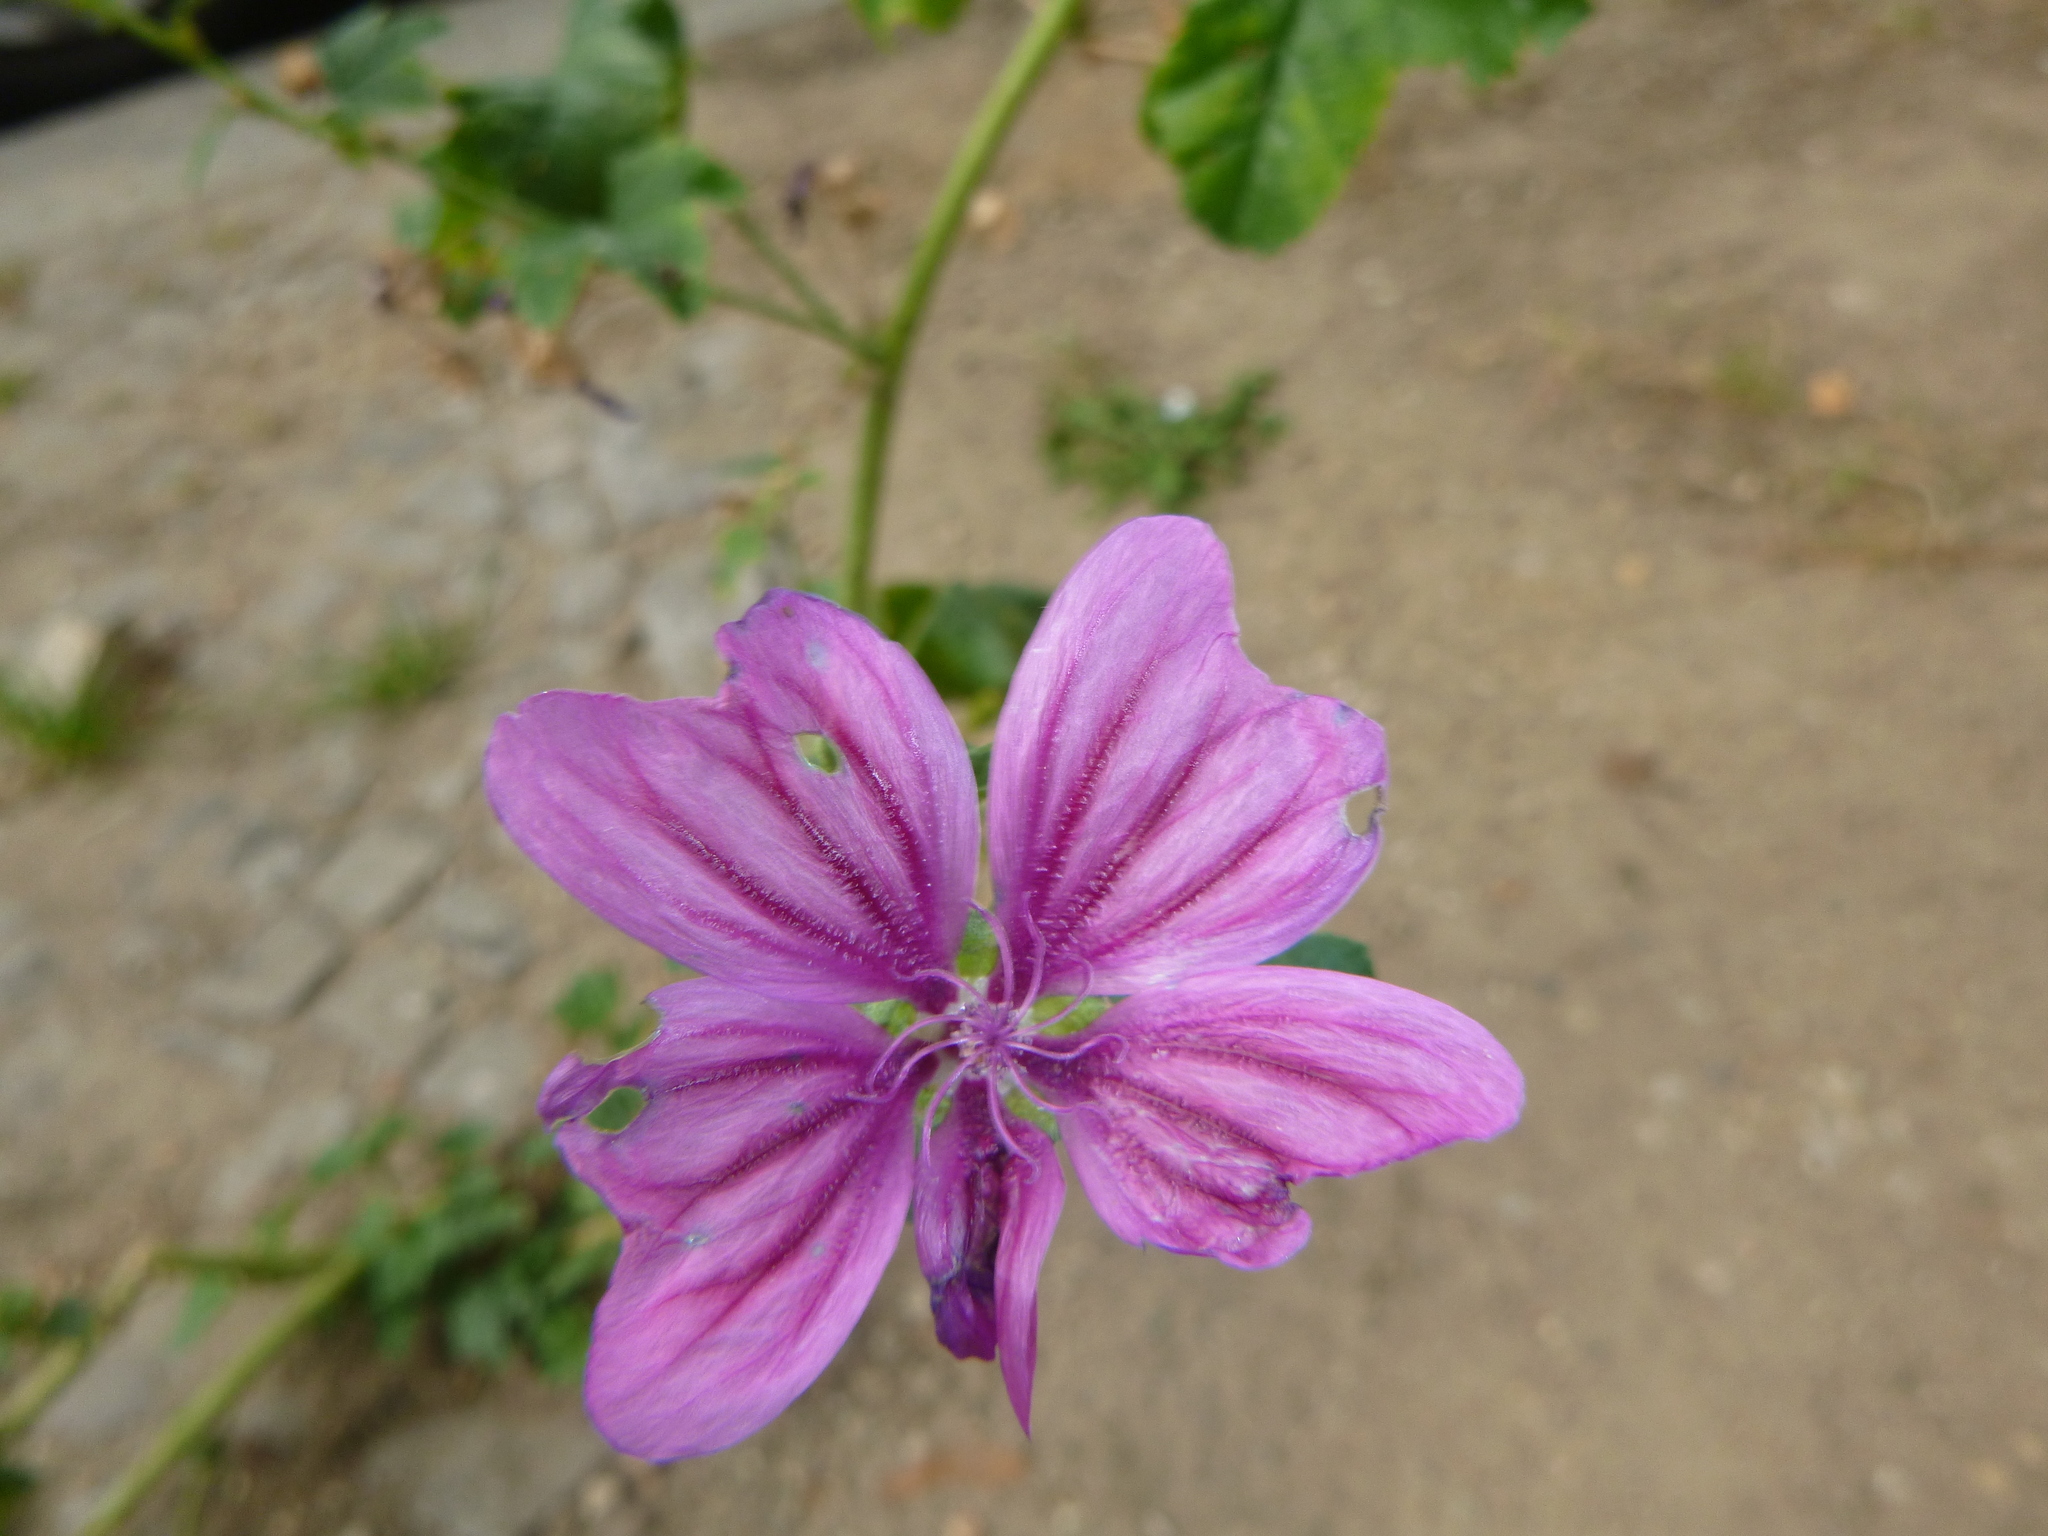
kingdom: Plantae
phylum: Tracheophyta
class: Magnoliopsida
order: Malvales
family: Malvaceae
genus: Malva
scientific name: Malva sylvestris
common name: Common mallow
